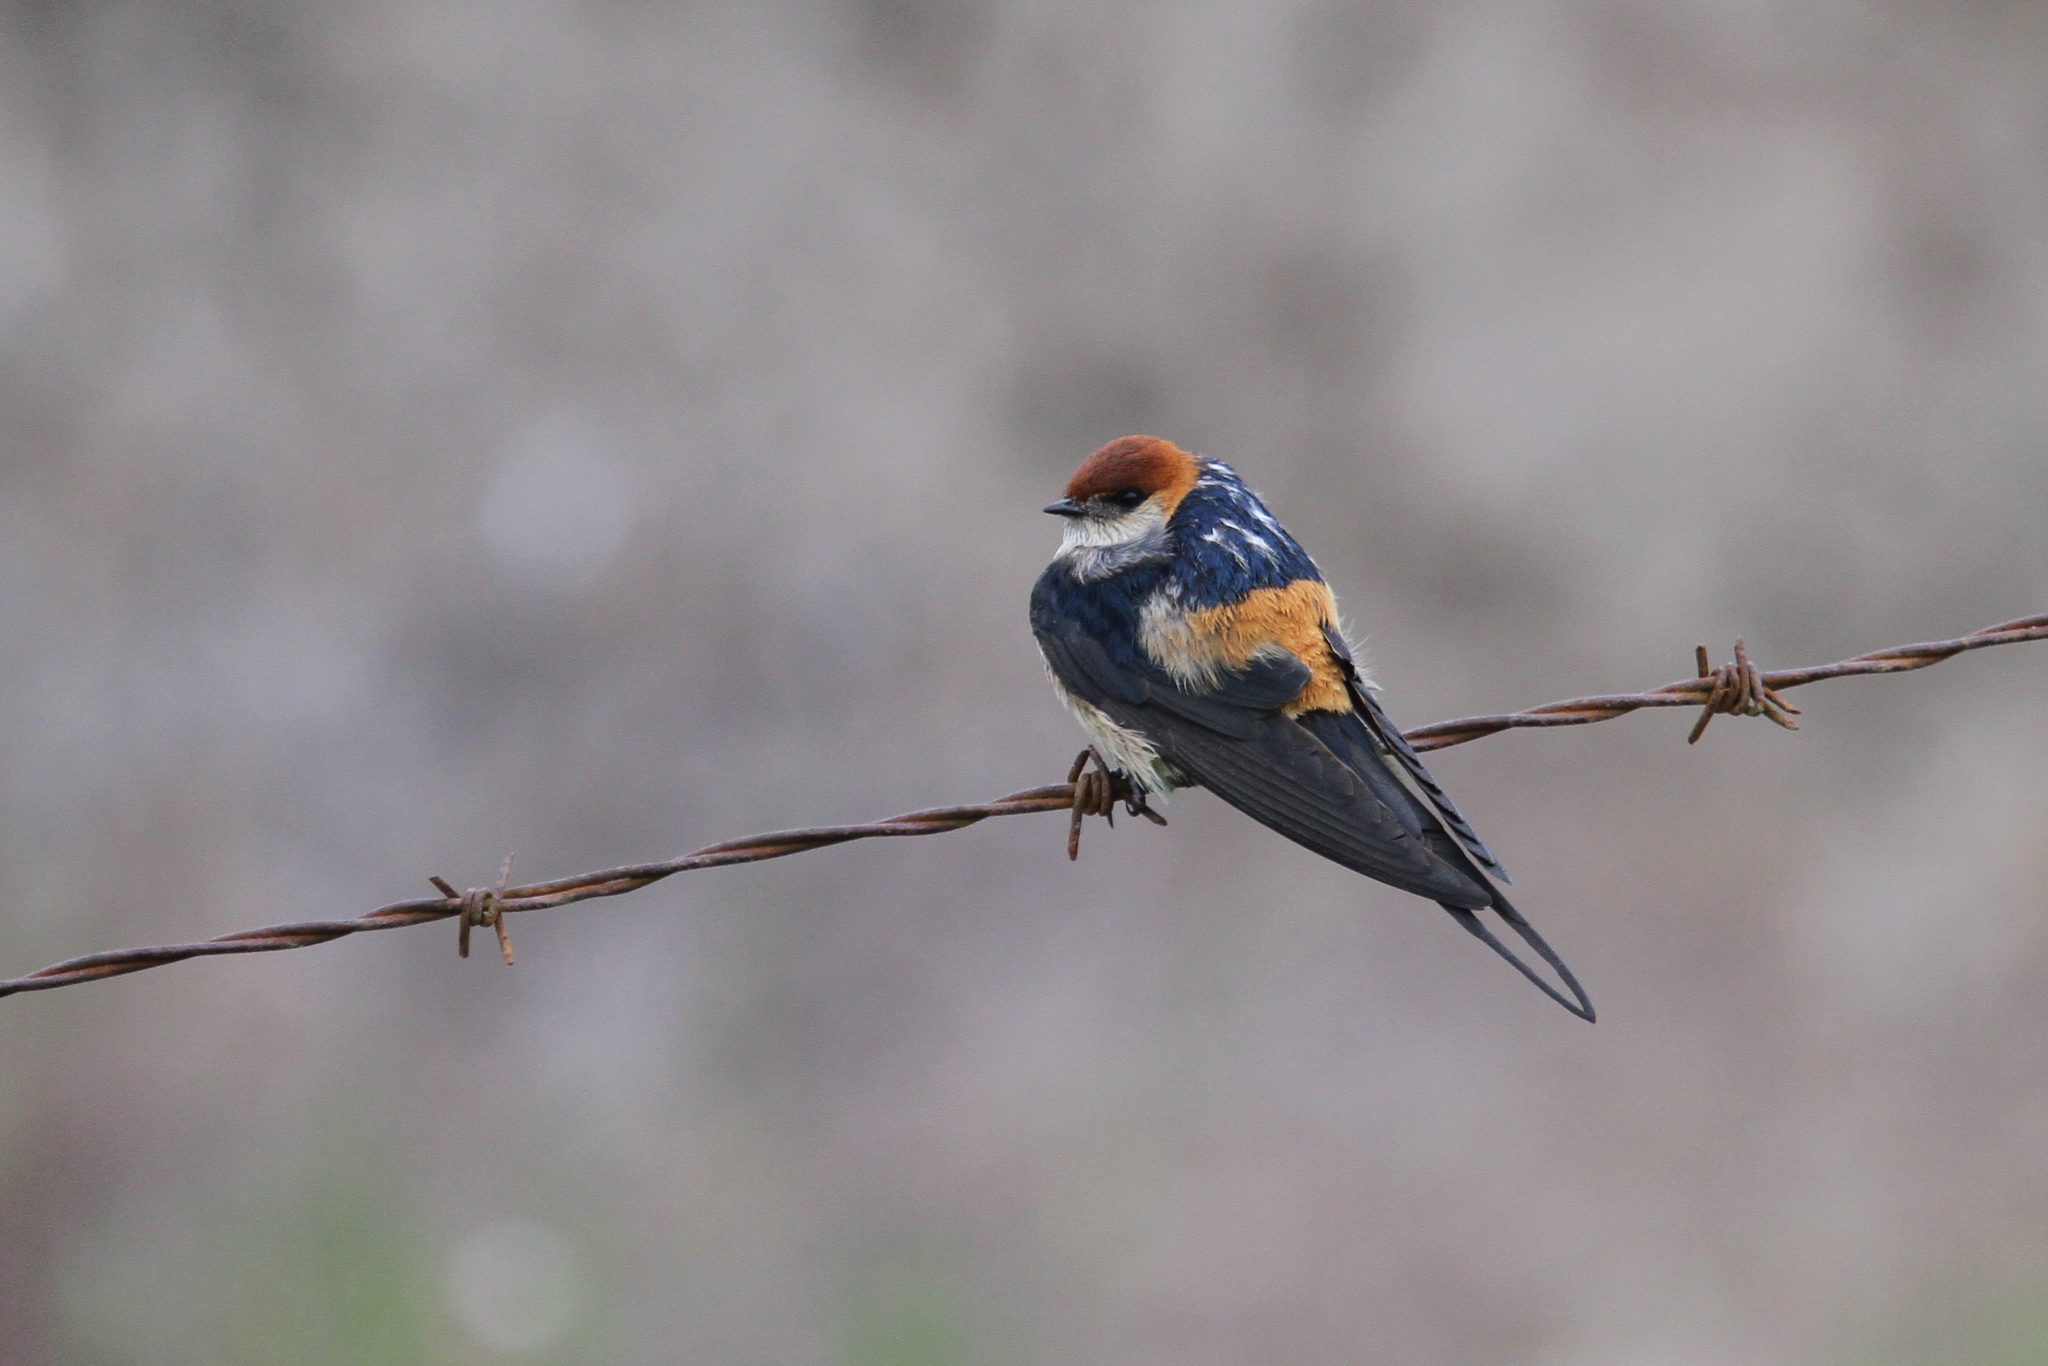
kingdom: Animalia
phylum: Chordata
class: Aves
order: Passeriformes
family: Hirundinidae
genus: Cecropis
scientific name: Cecropis cucullata
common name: Greater striped-swallow
